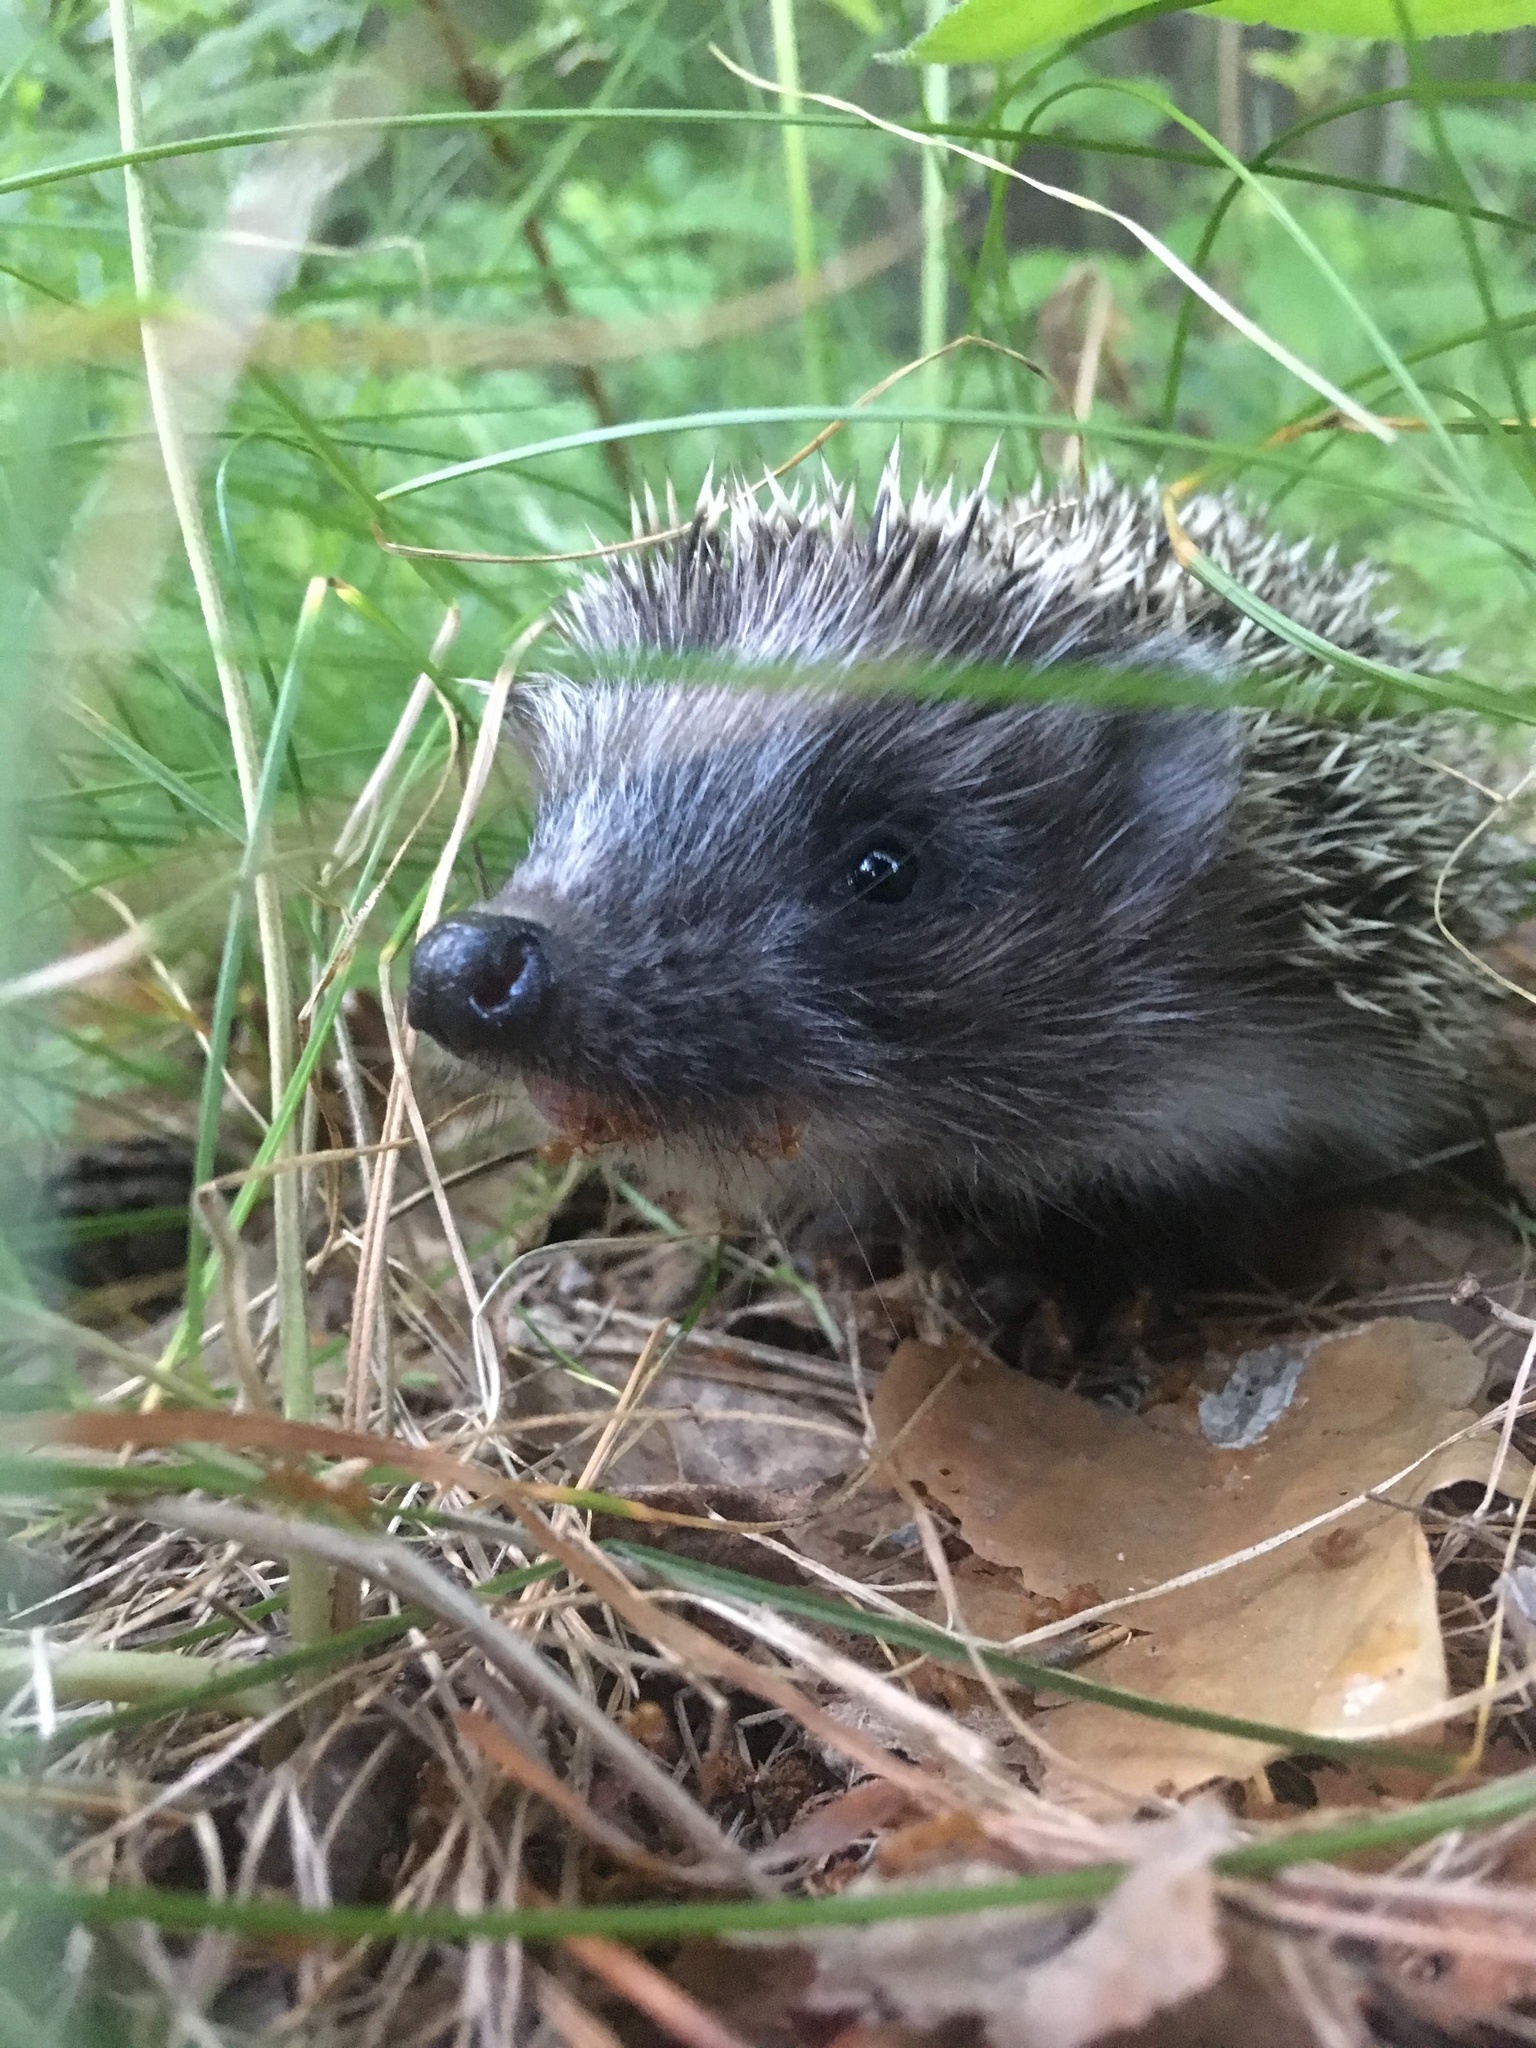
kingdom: Animalia
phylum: Chordata
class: Mammalia
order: Erinaceomorpha
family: Erinaceidae
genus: Erinaceus
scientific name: Erinaceus europaeus
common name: West european hedgehog
